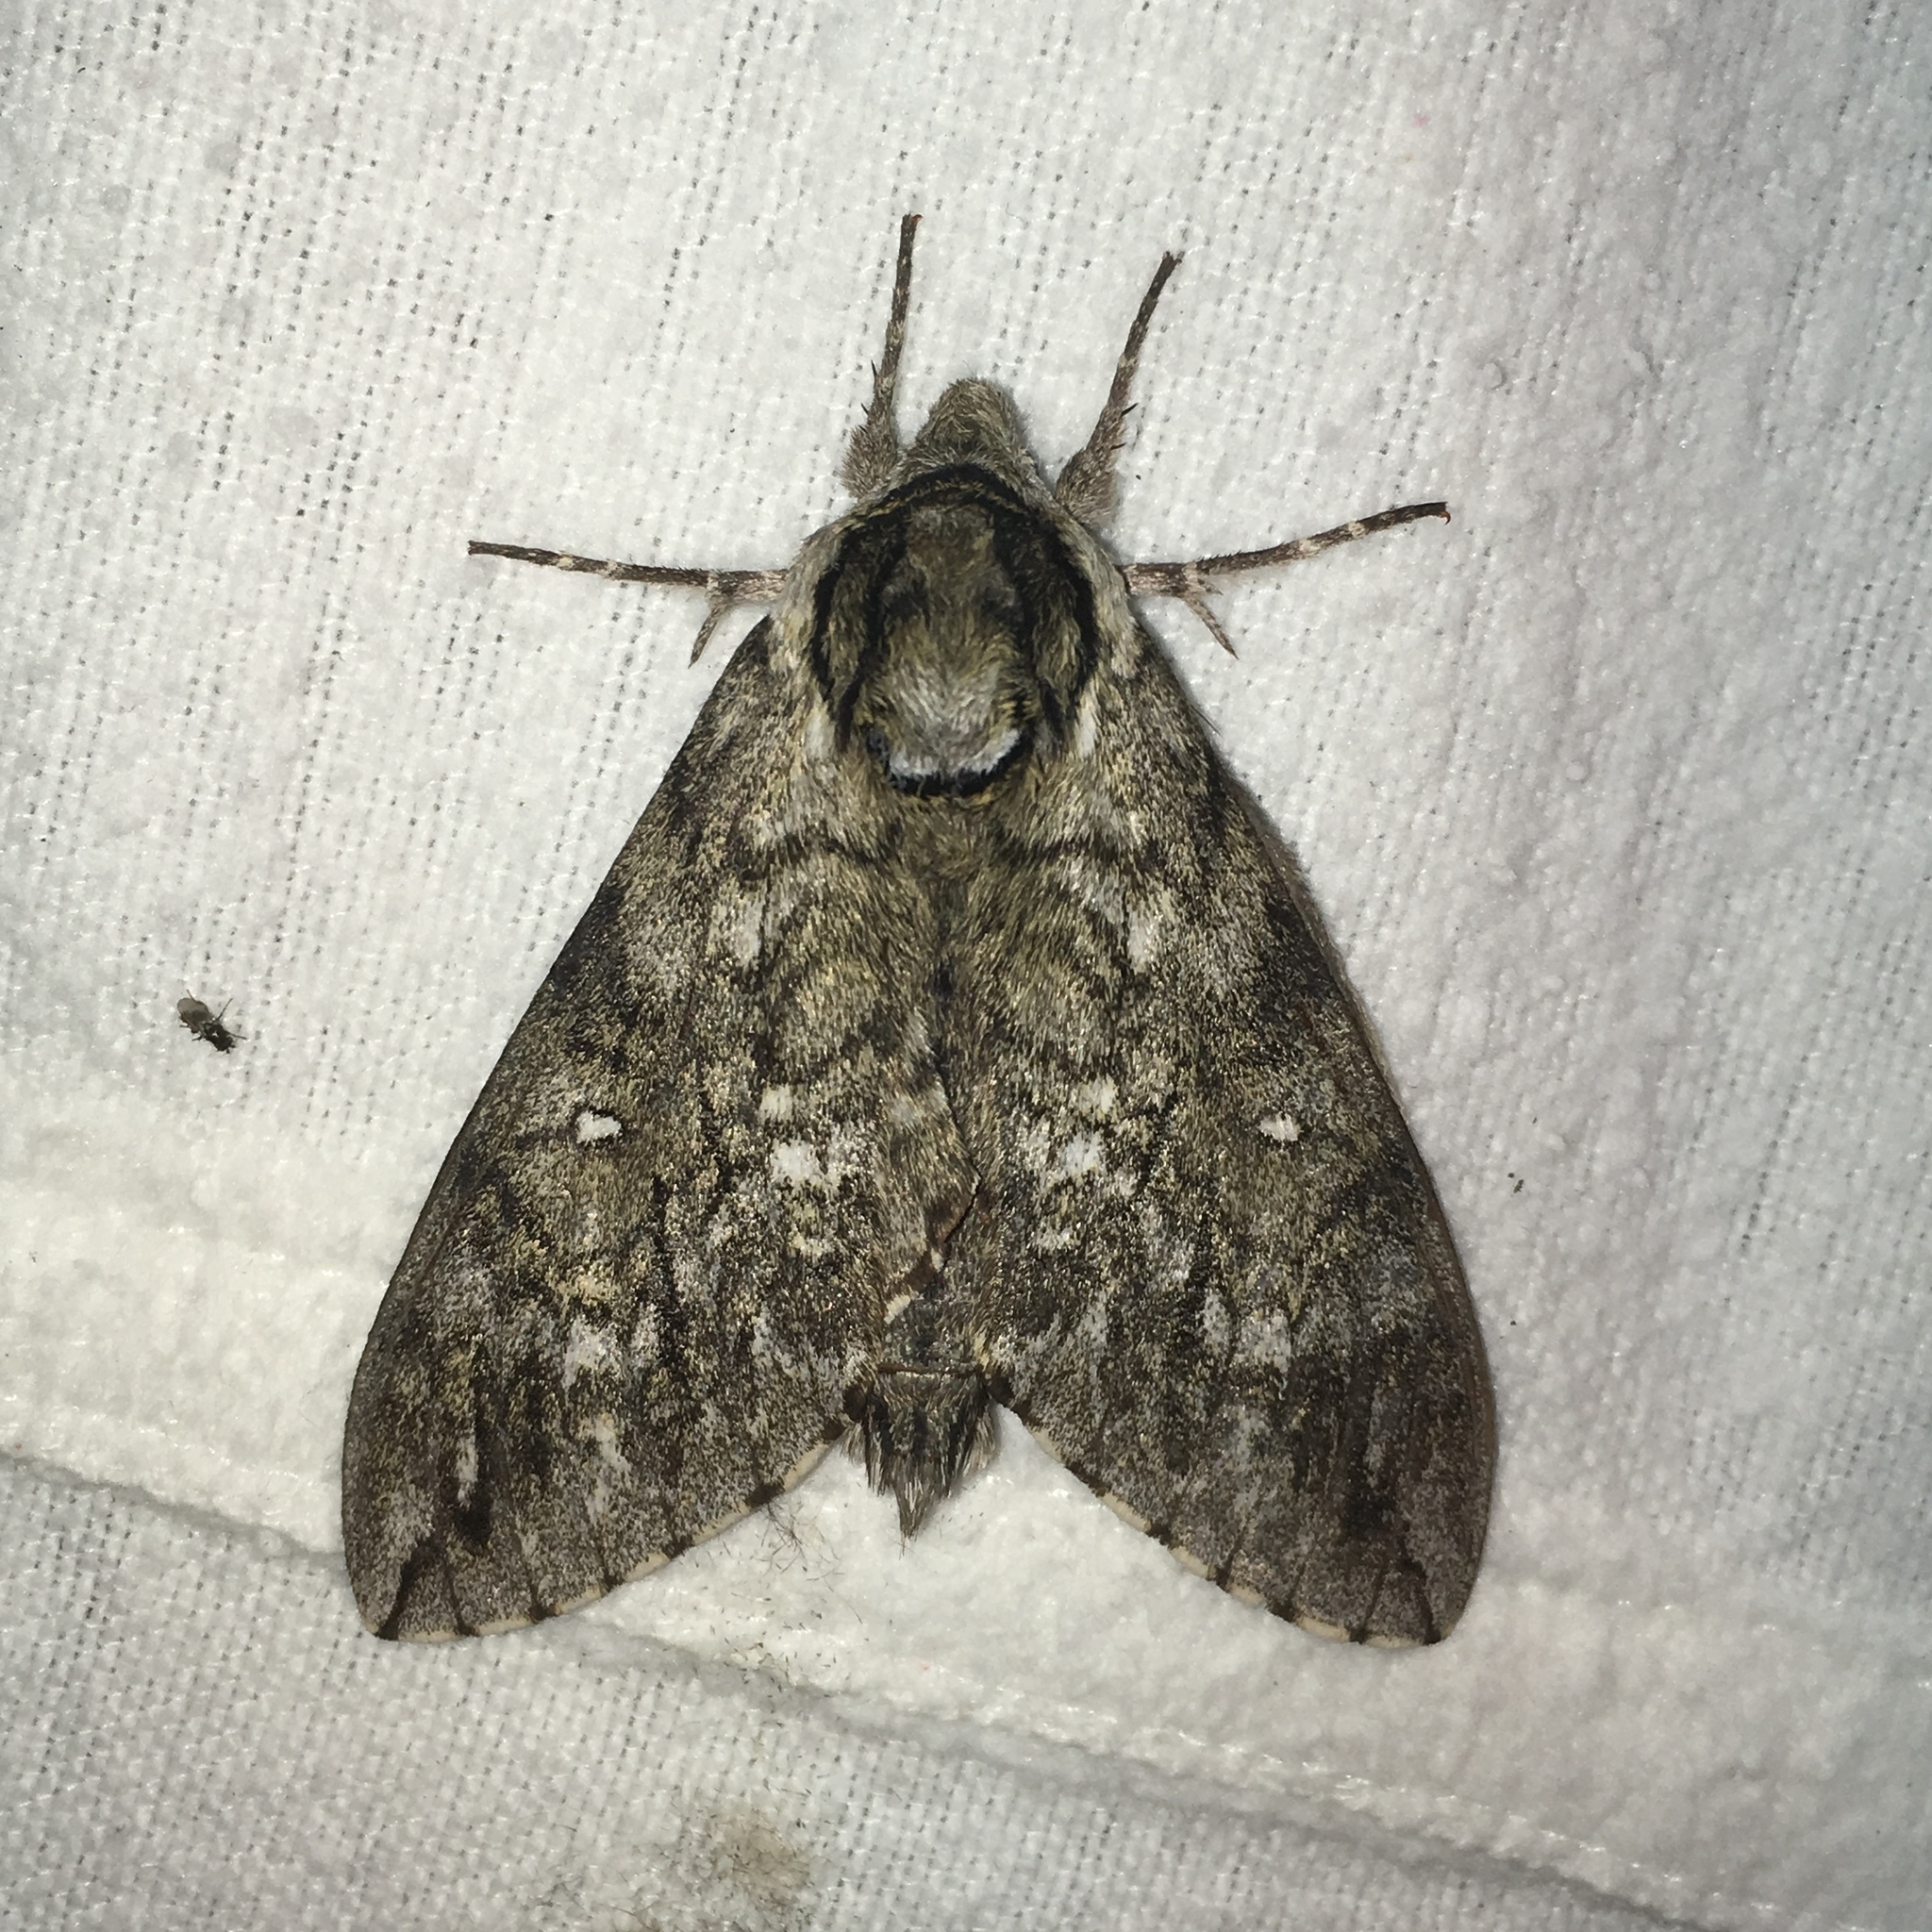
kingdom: Animalia
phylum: Arthropoda
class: Insecta
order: Lepidoptera
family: Sphingidae
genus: Ceratomia
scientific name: Ceratomia undulosa
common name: Waved sphinx
